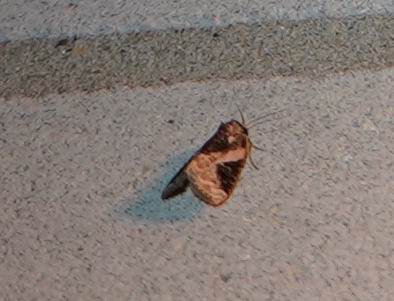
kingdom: Animalia
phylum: Arthropoda
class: Insecta
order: Lepidoptera
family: Noctuidae
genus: Pseudeustrotia
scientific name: Pseudeustrotia carneola
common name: Pink-barred lithacodia moth
